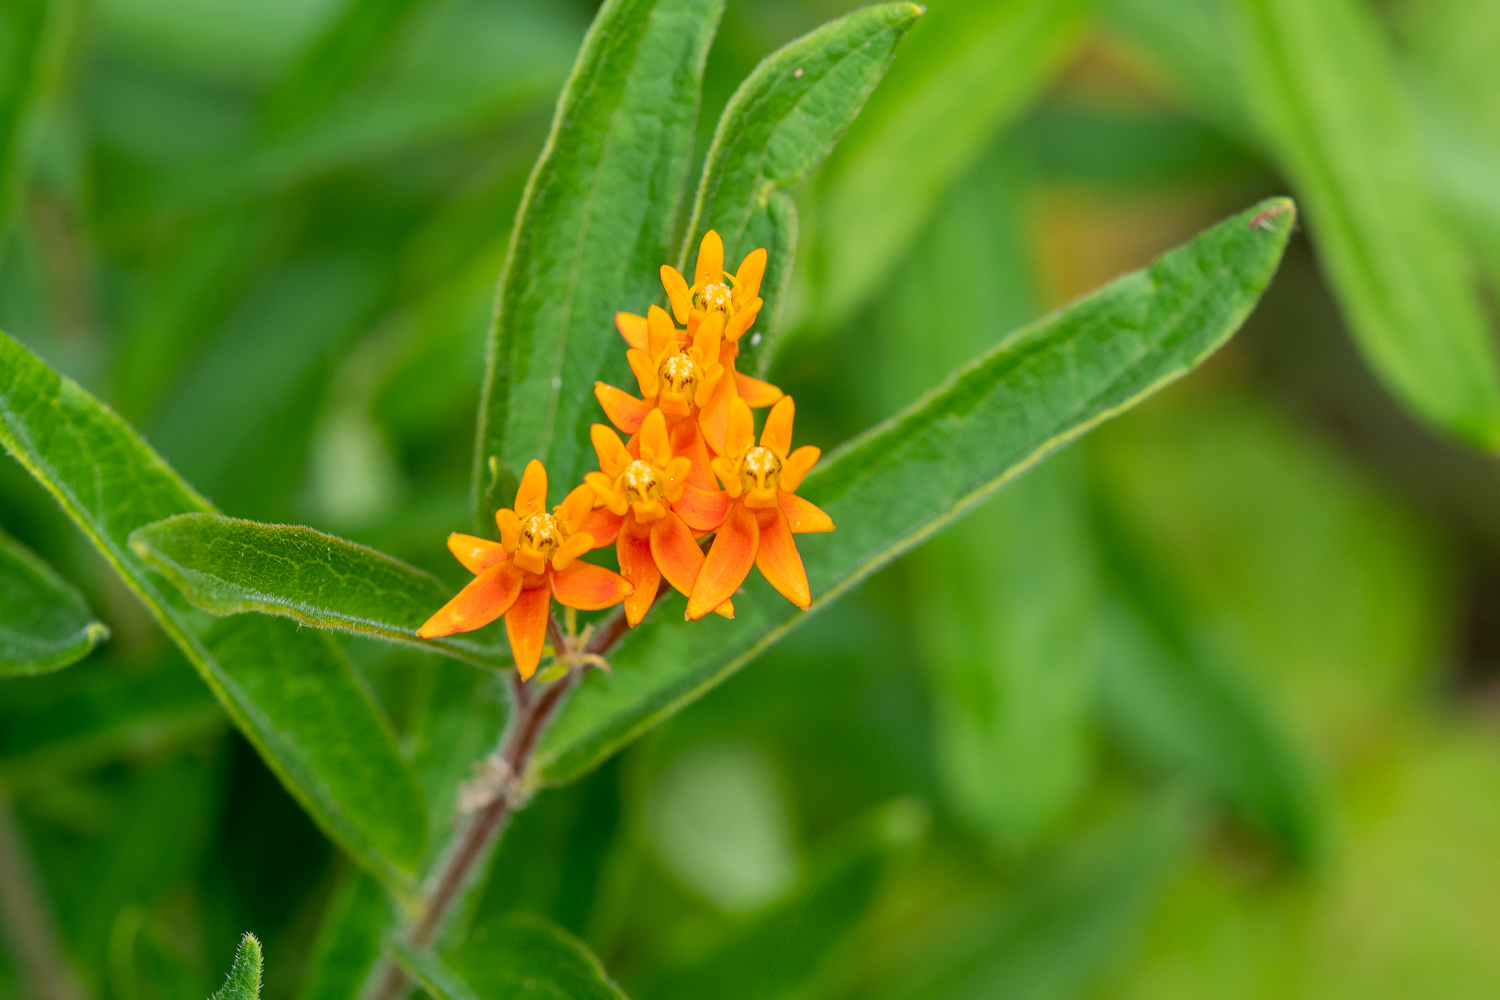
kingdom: Plantae
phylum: Tracheophyta
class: Magnoliopsida
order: Gentianales
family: Apocynaceae
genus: Asclepias
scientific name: Asclepias tuberosa
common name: Butterfly milkweed
